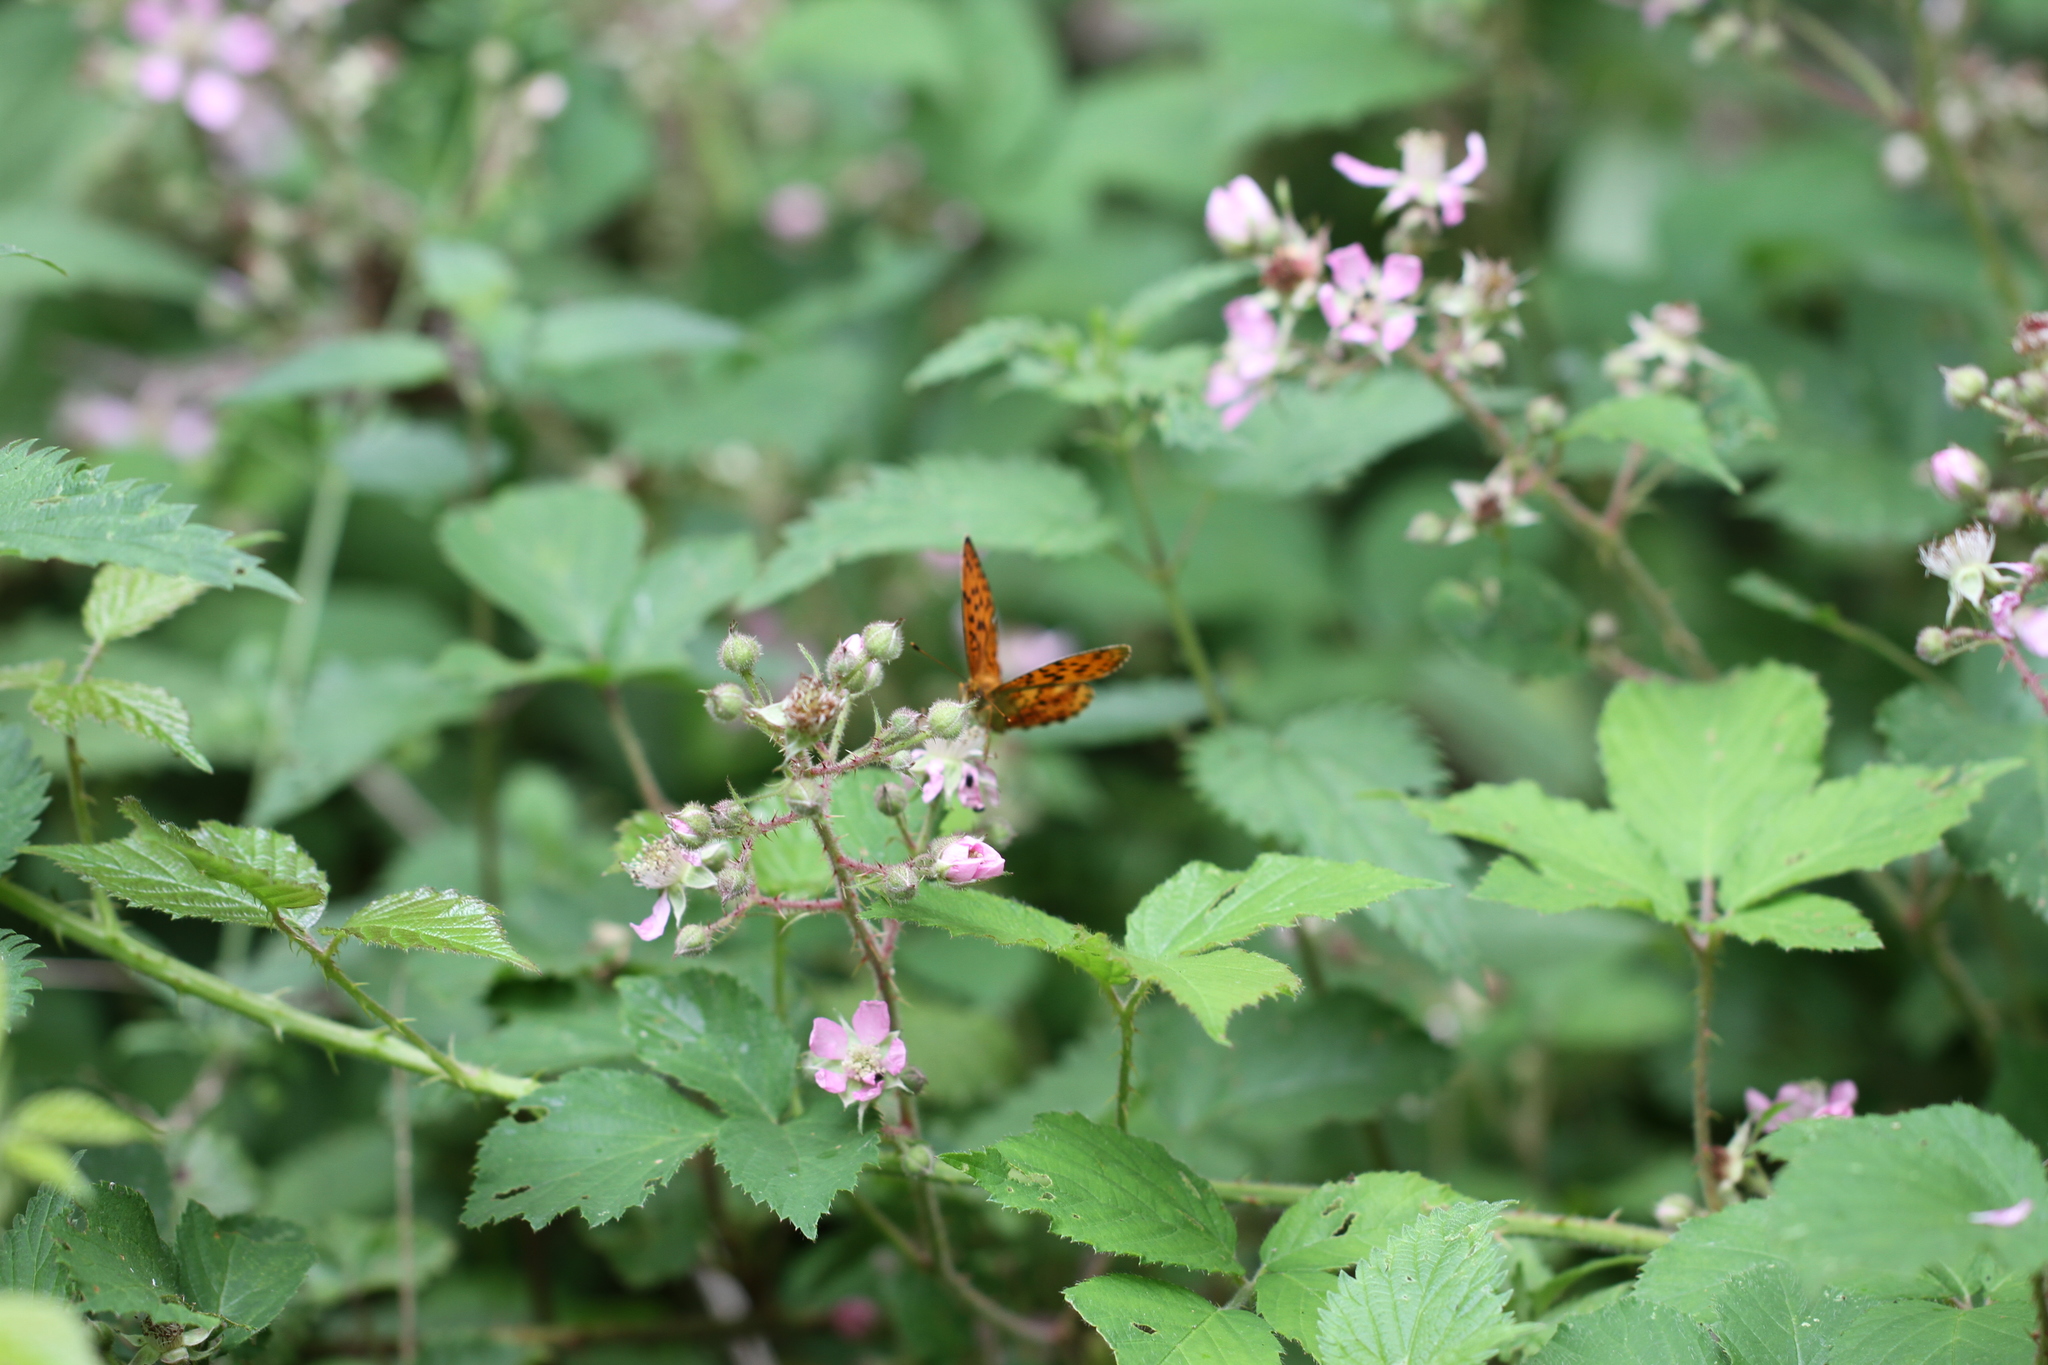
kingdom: Animalia
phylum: Arthropoda
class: Insecta
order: Lepidoptera
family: Nymphalidae
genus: Brenthis
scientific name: Brenthis daphne
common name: Marbled fritillary
